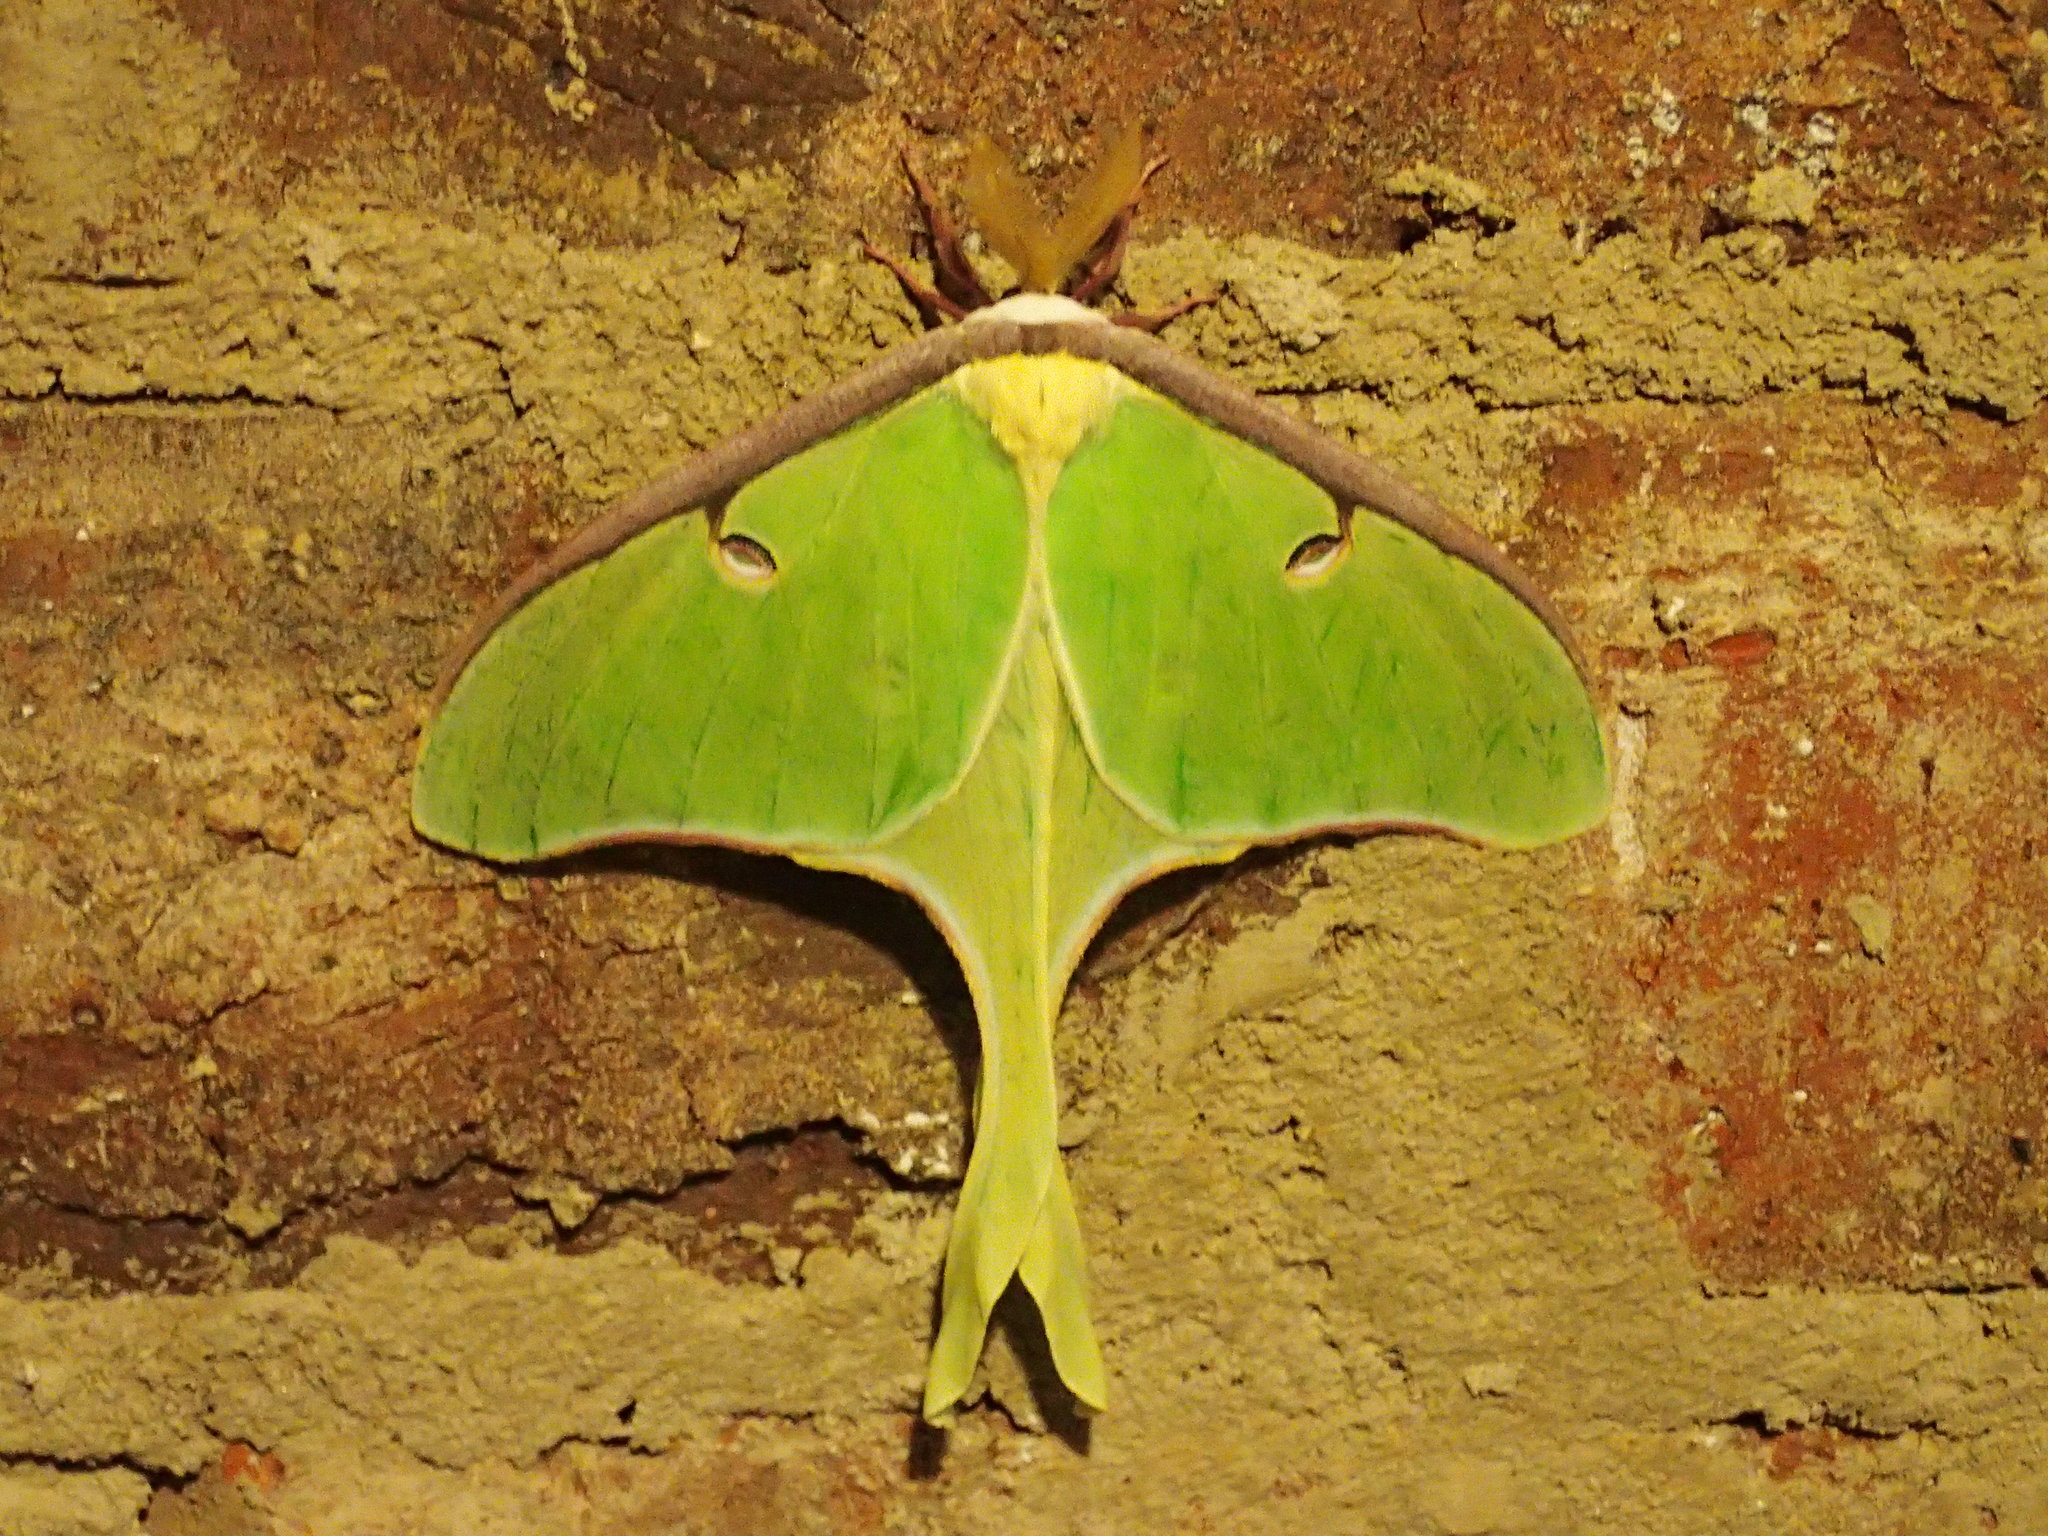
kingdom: Animalia
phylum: Arthropoda
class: Insecta
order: Lepidoptera
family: Saturniidae
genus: Actias
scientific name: Actias luna
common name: Luna moth
